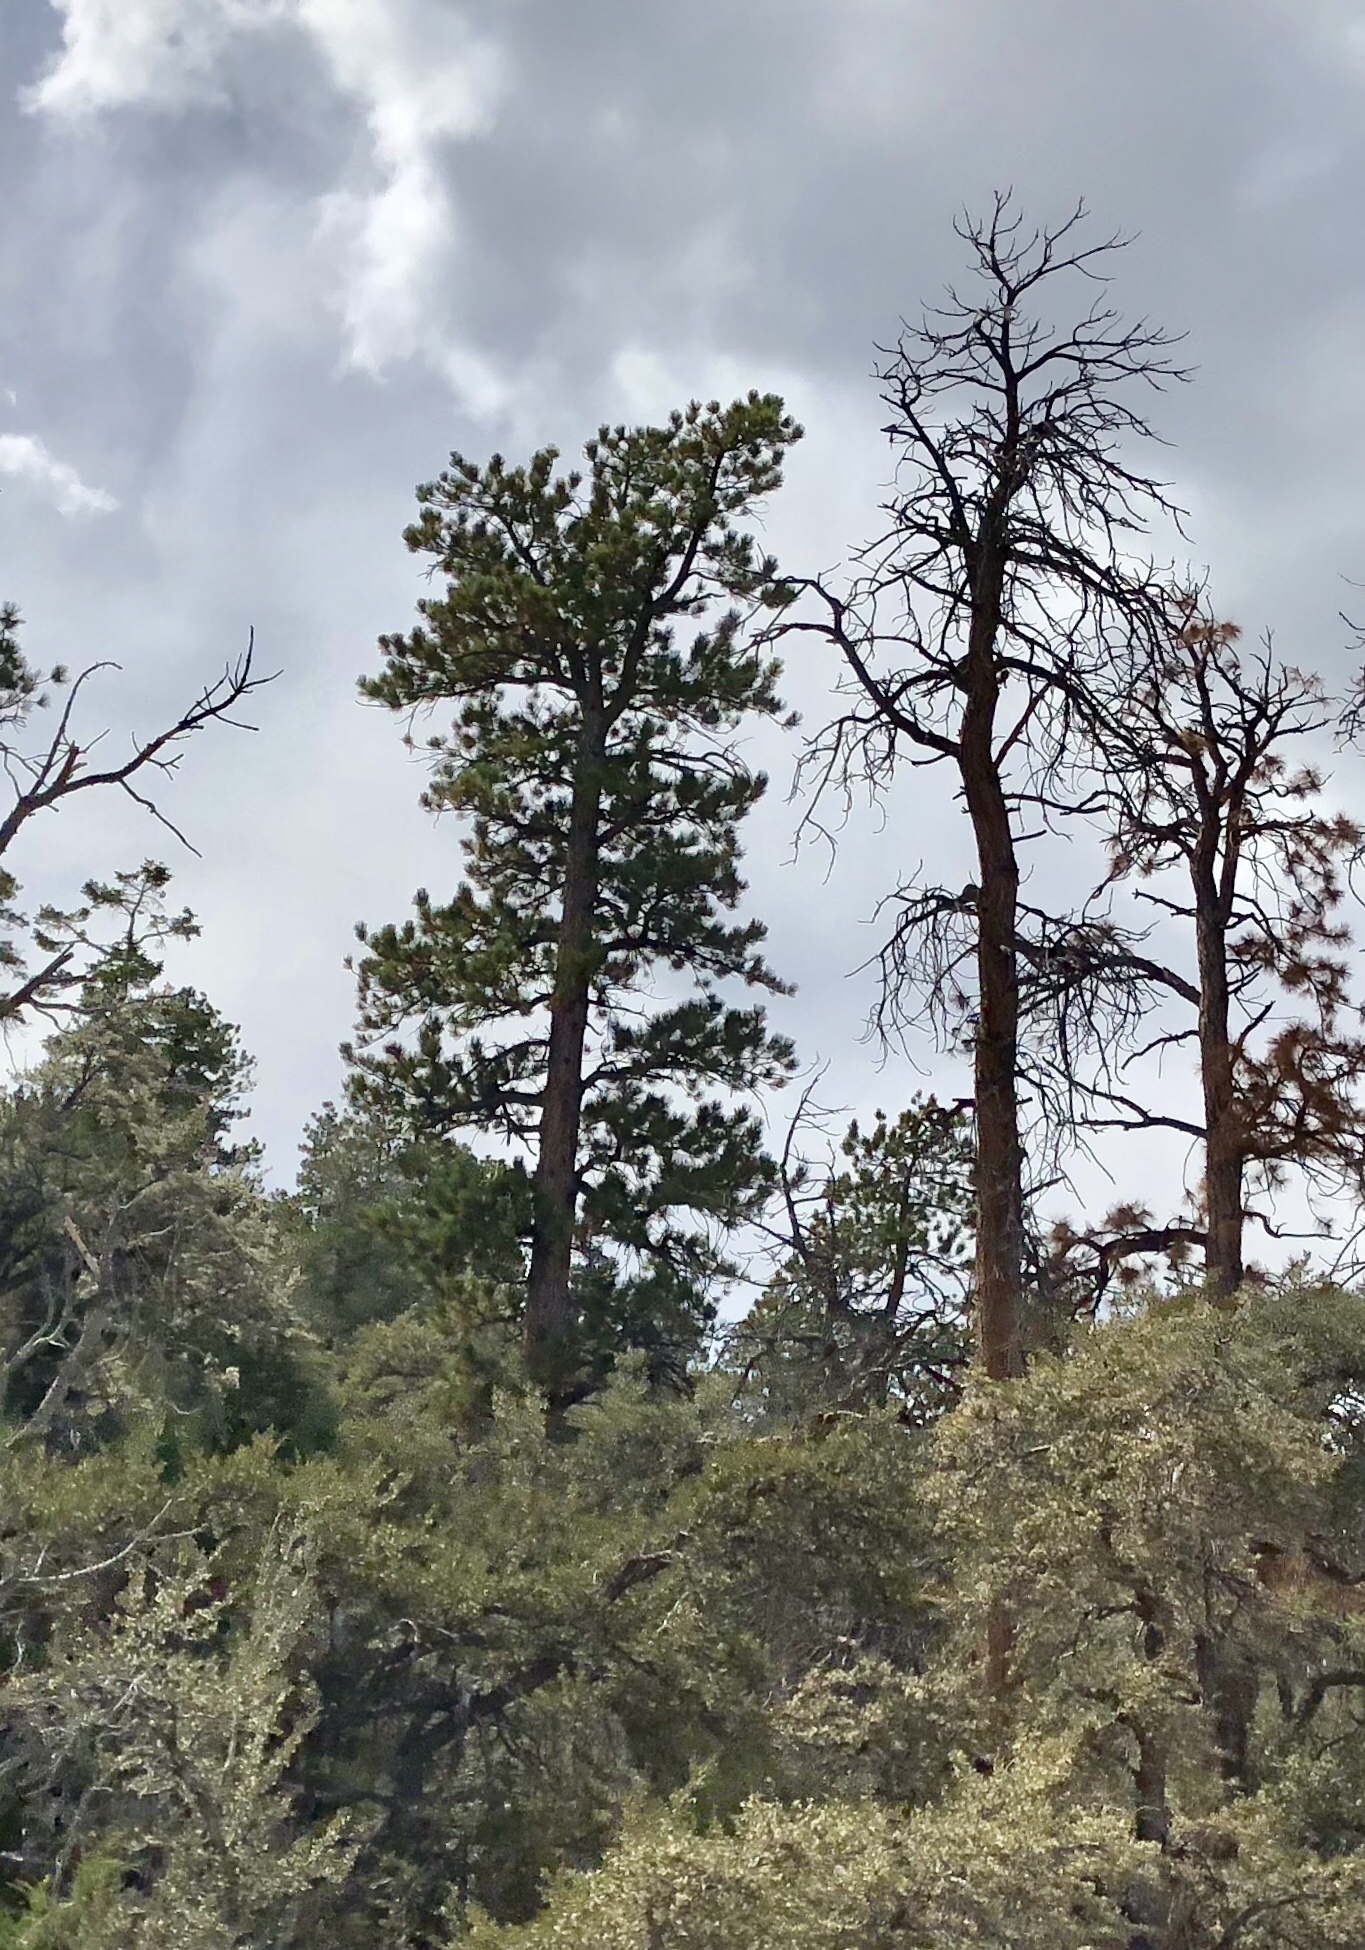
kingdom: Plantae
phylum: Tracheophyta
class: Pinopsida
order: Pinales
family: Pinaceae
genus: Pinus
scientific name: Pinus ponderosa
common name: Western yellow-pine
